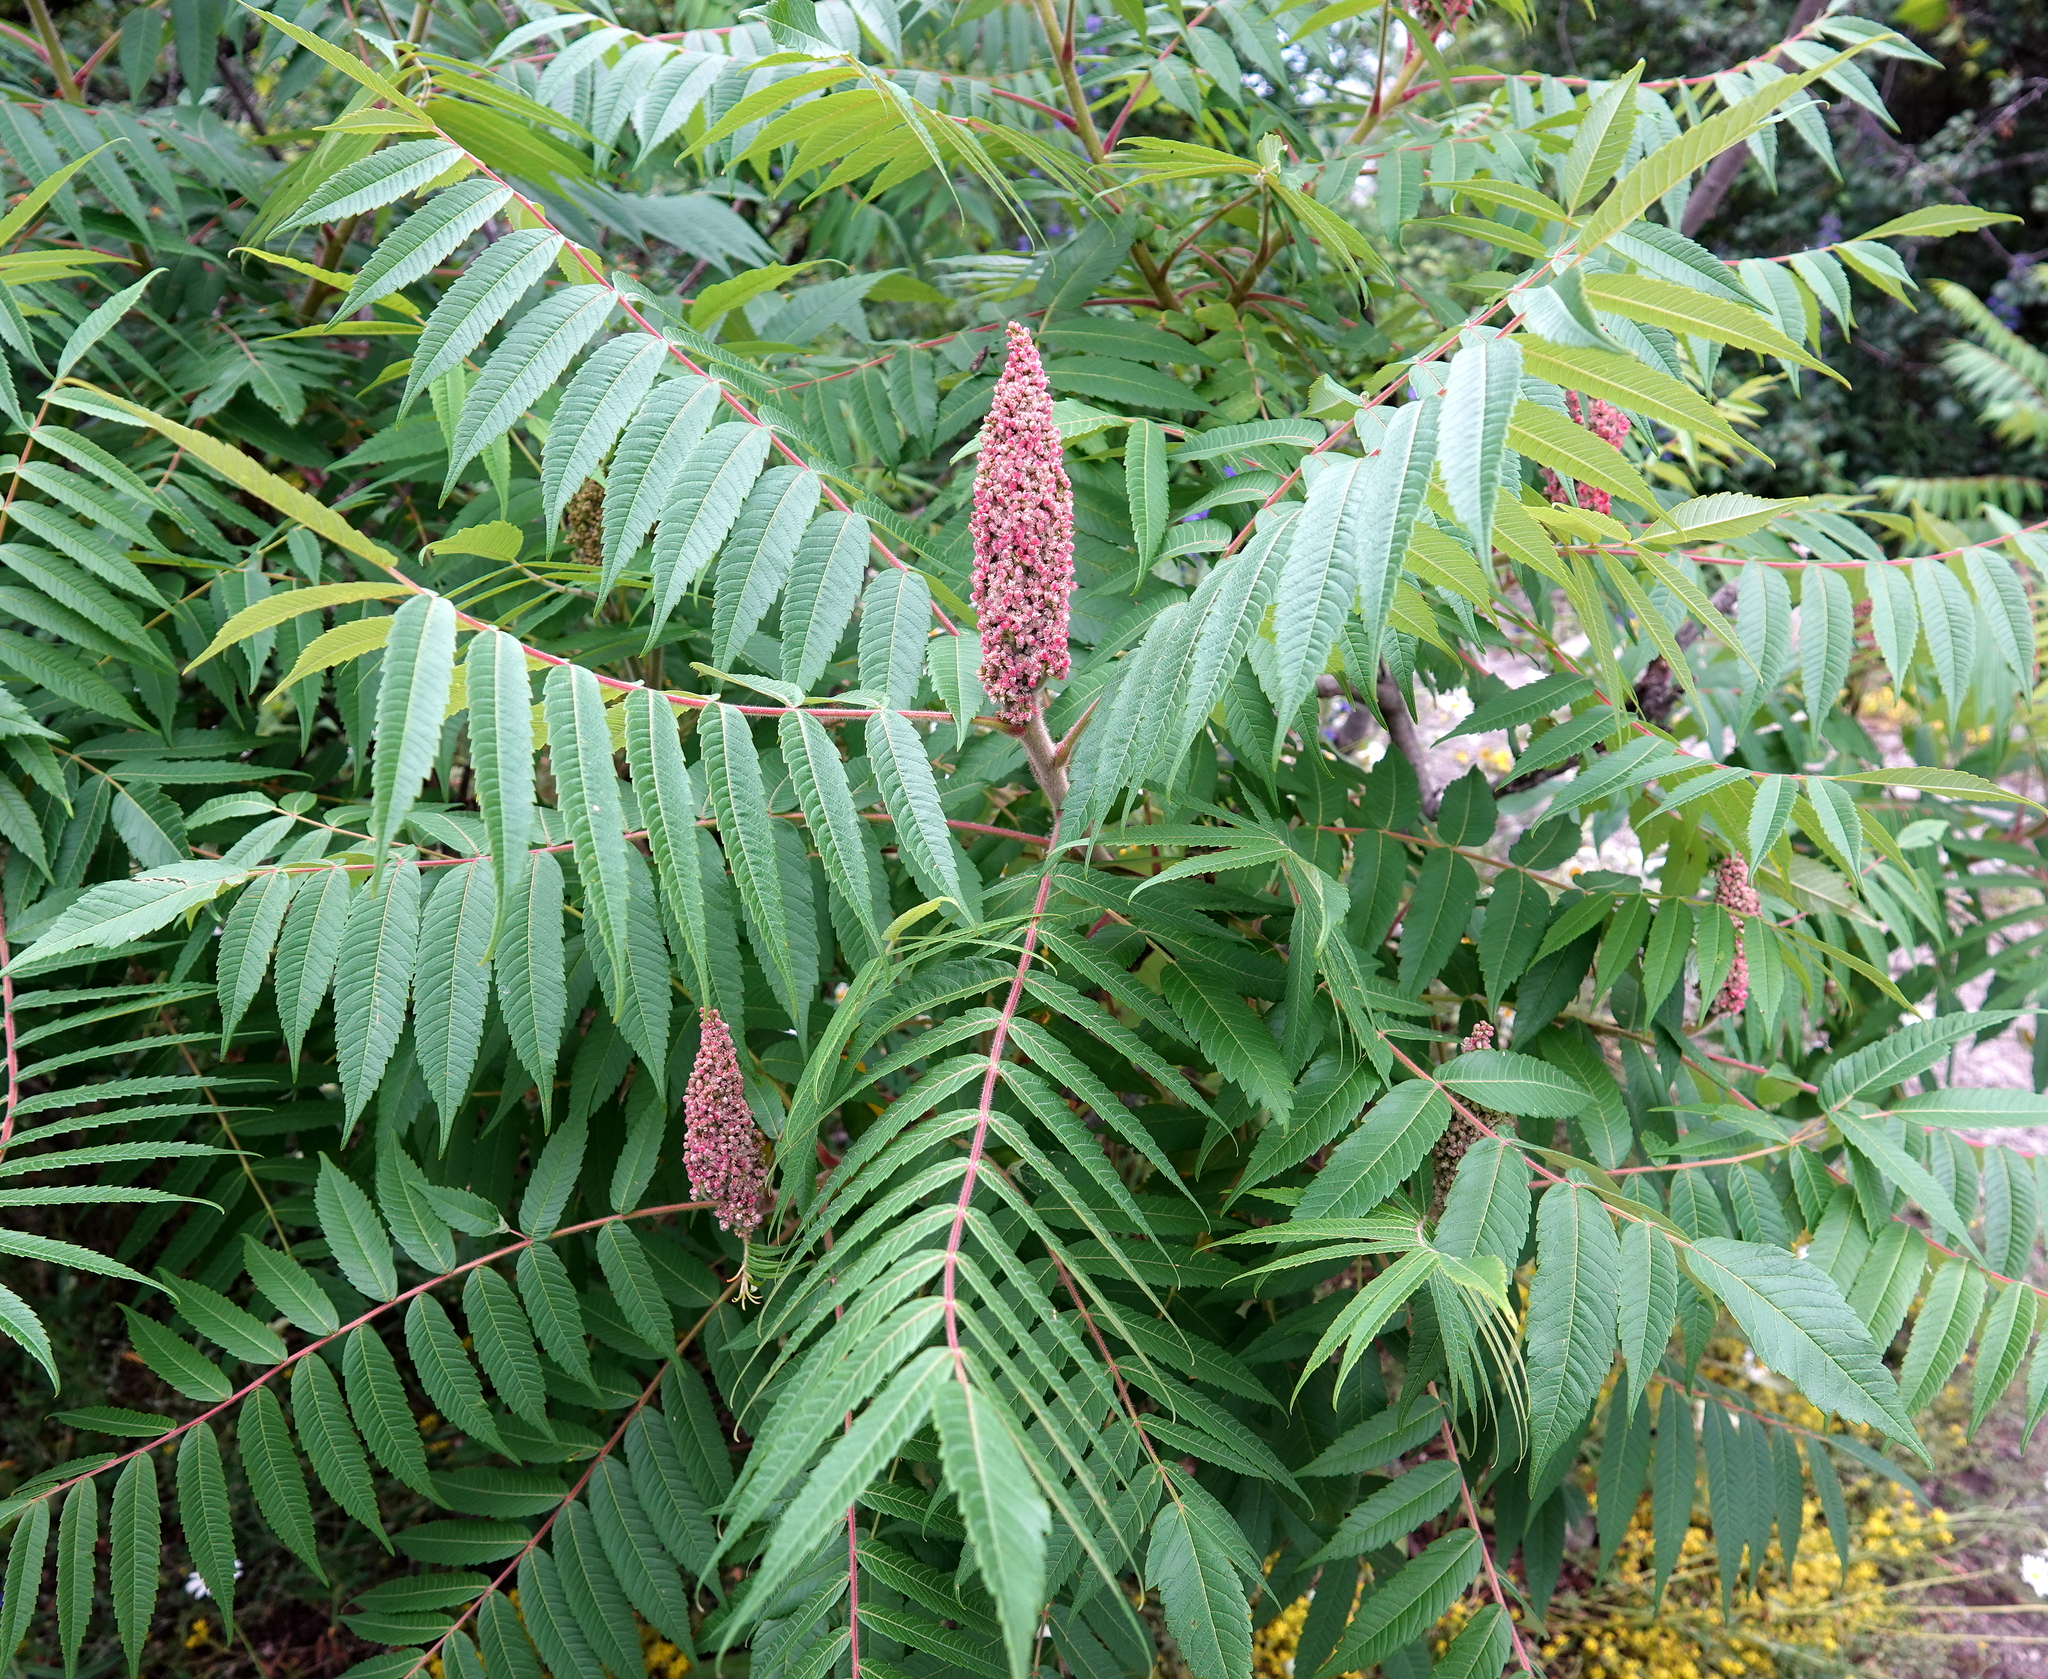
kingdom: Plantae
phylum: Tracheophyta
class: Magnoliopsida
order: Sapindales
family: Anacardiaceae
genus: Rhus
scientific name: Rhus typhina
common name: Staghorn sumac
